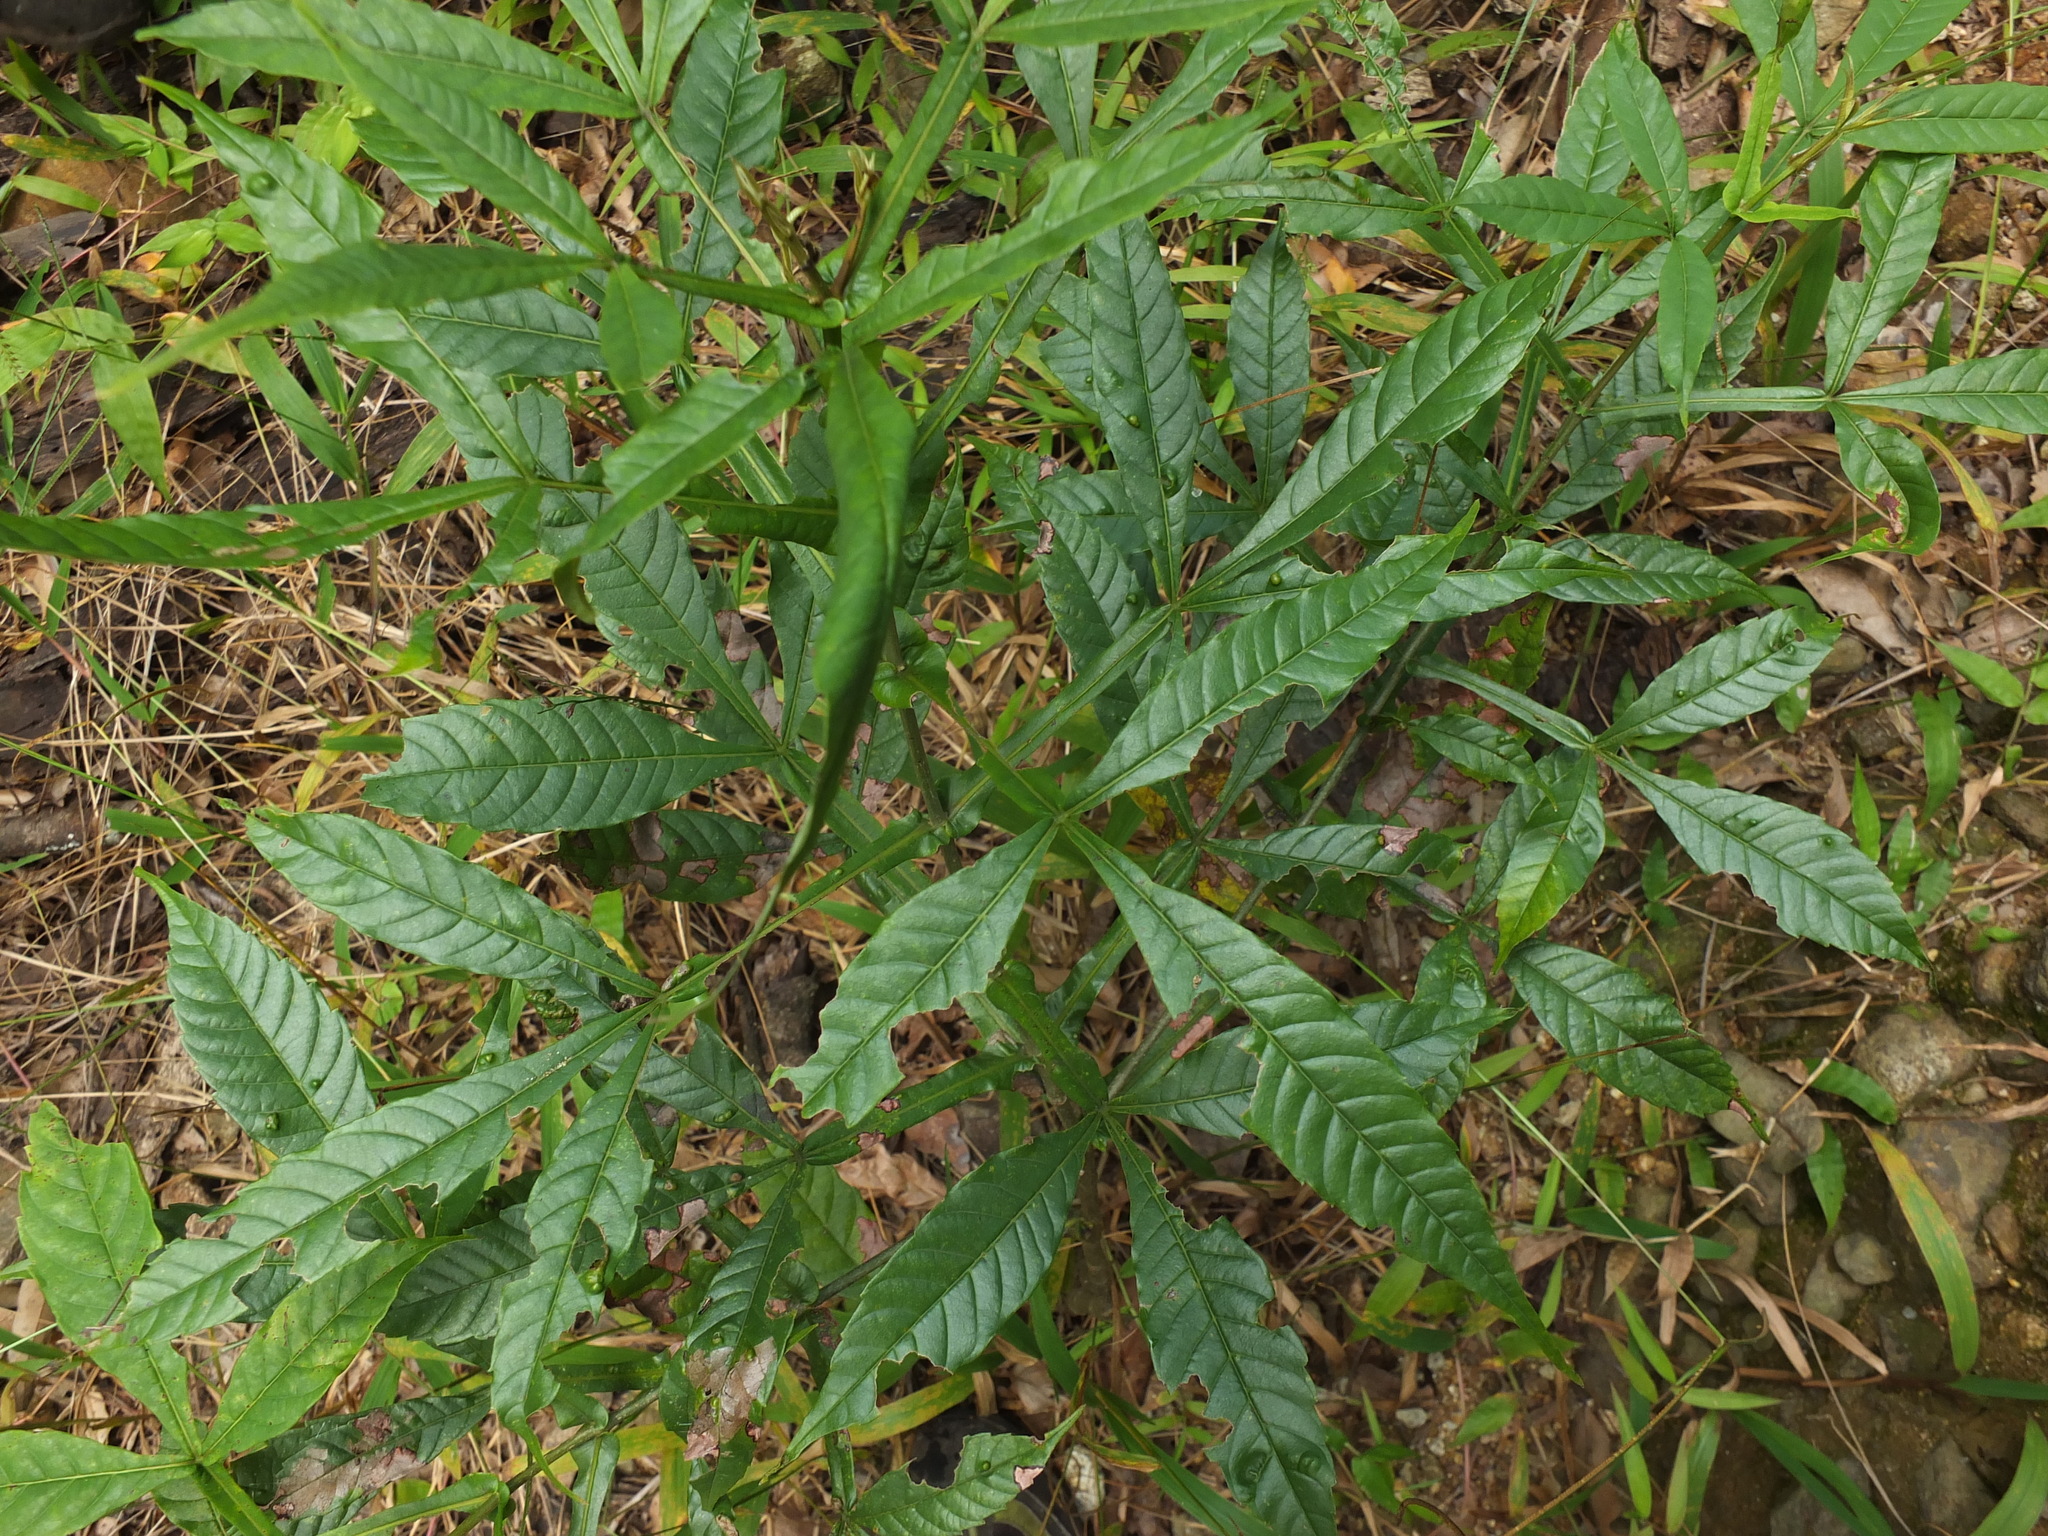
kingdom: Plantae
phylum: Tracheophyta
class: Magnoliopsida
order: Lamiales
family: Lamiaceae
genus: Vitex
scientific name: Vitex altissima
